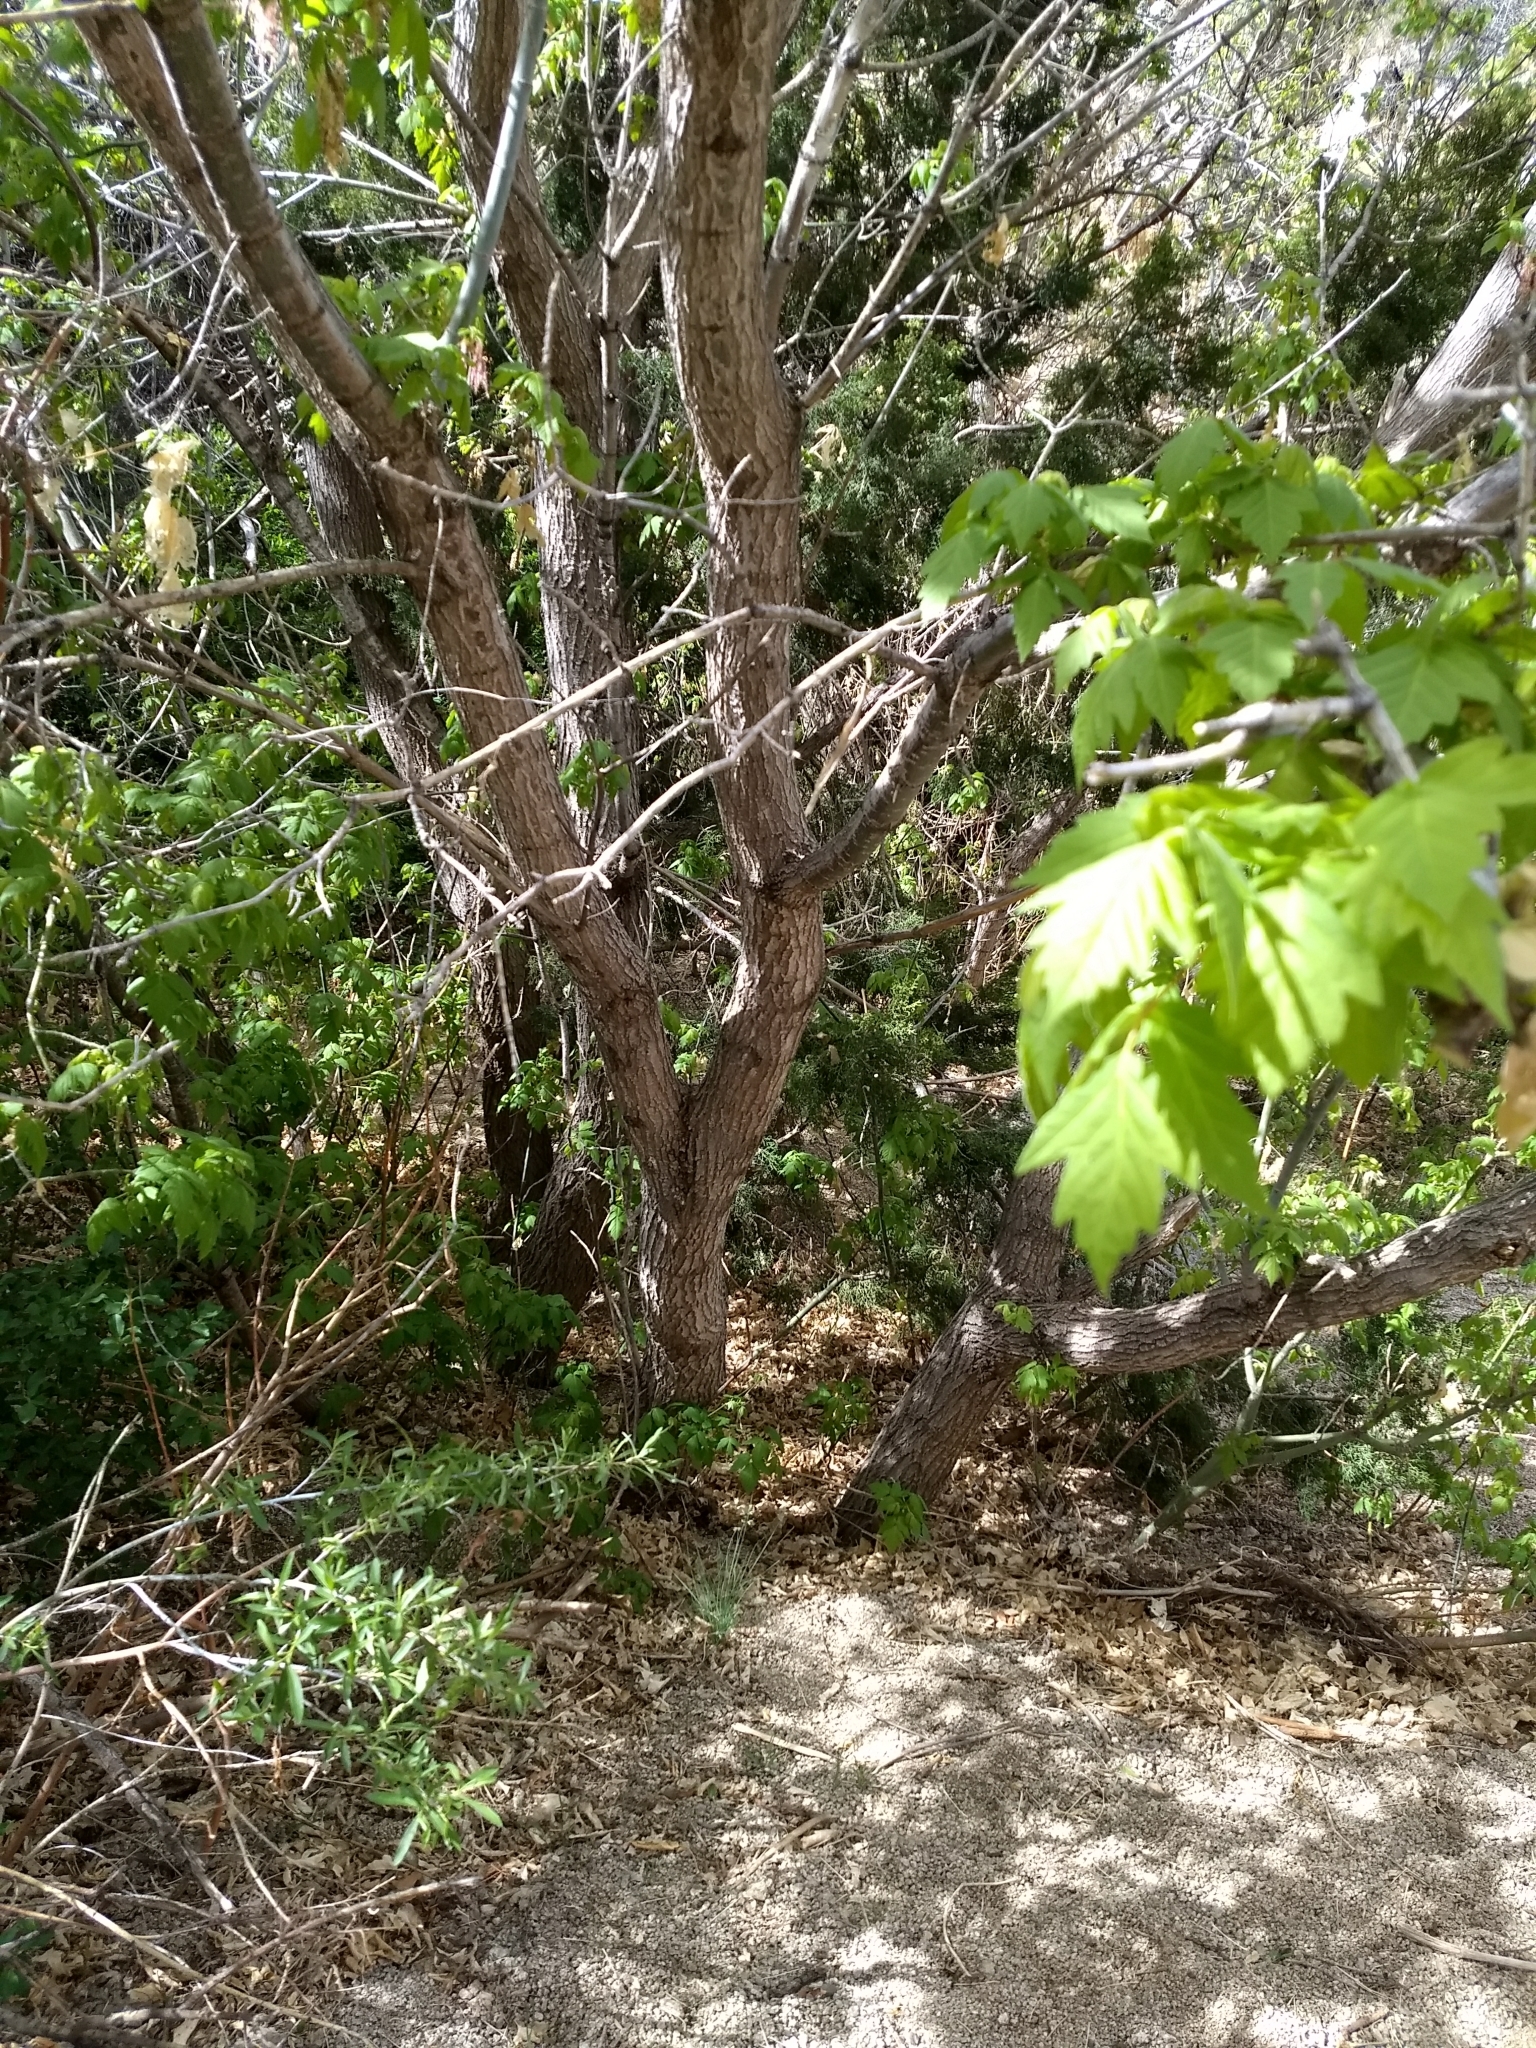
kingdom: Plantae
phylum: Tracheophyta
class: Magnoliopsida
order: Sapindales
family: Sapindaceae
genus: Acer
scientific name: Acer negundo
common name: Ashleaf maple
